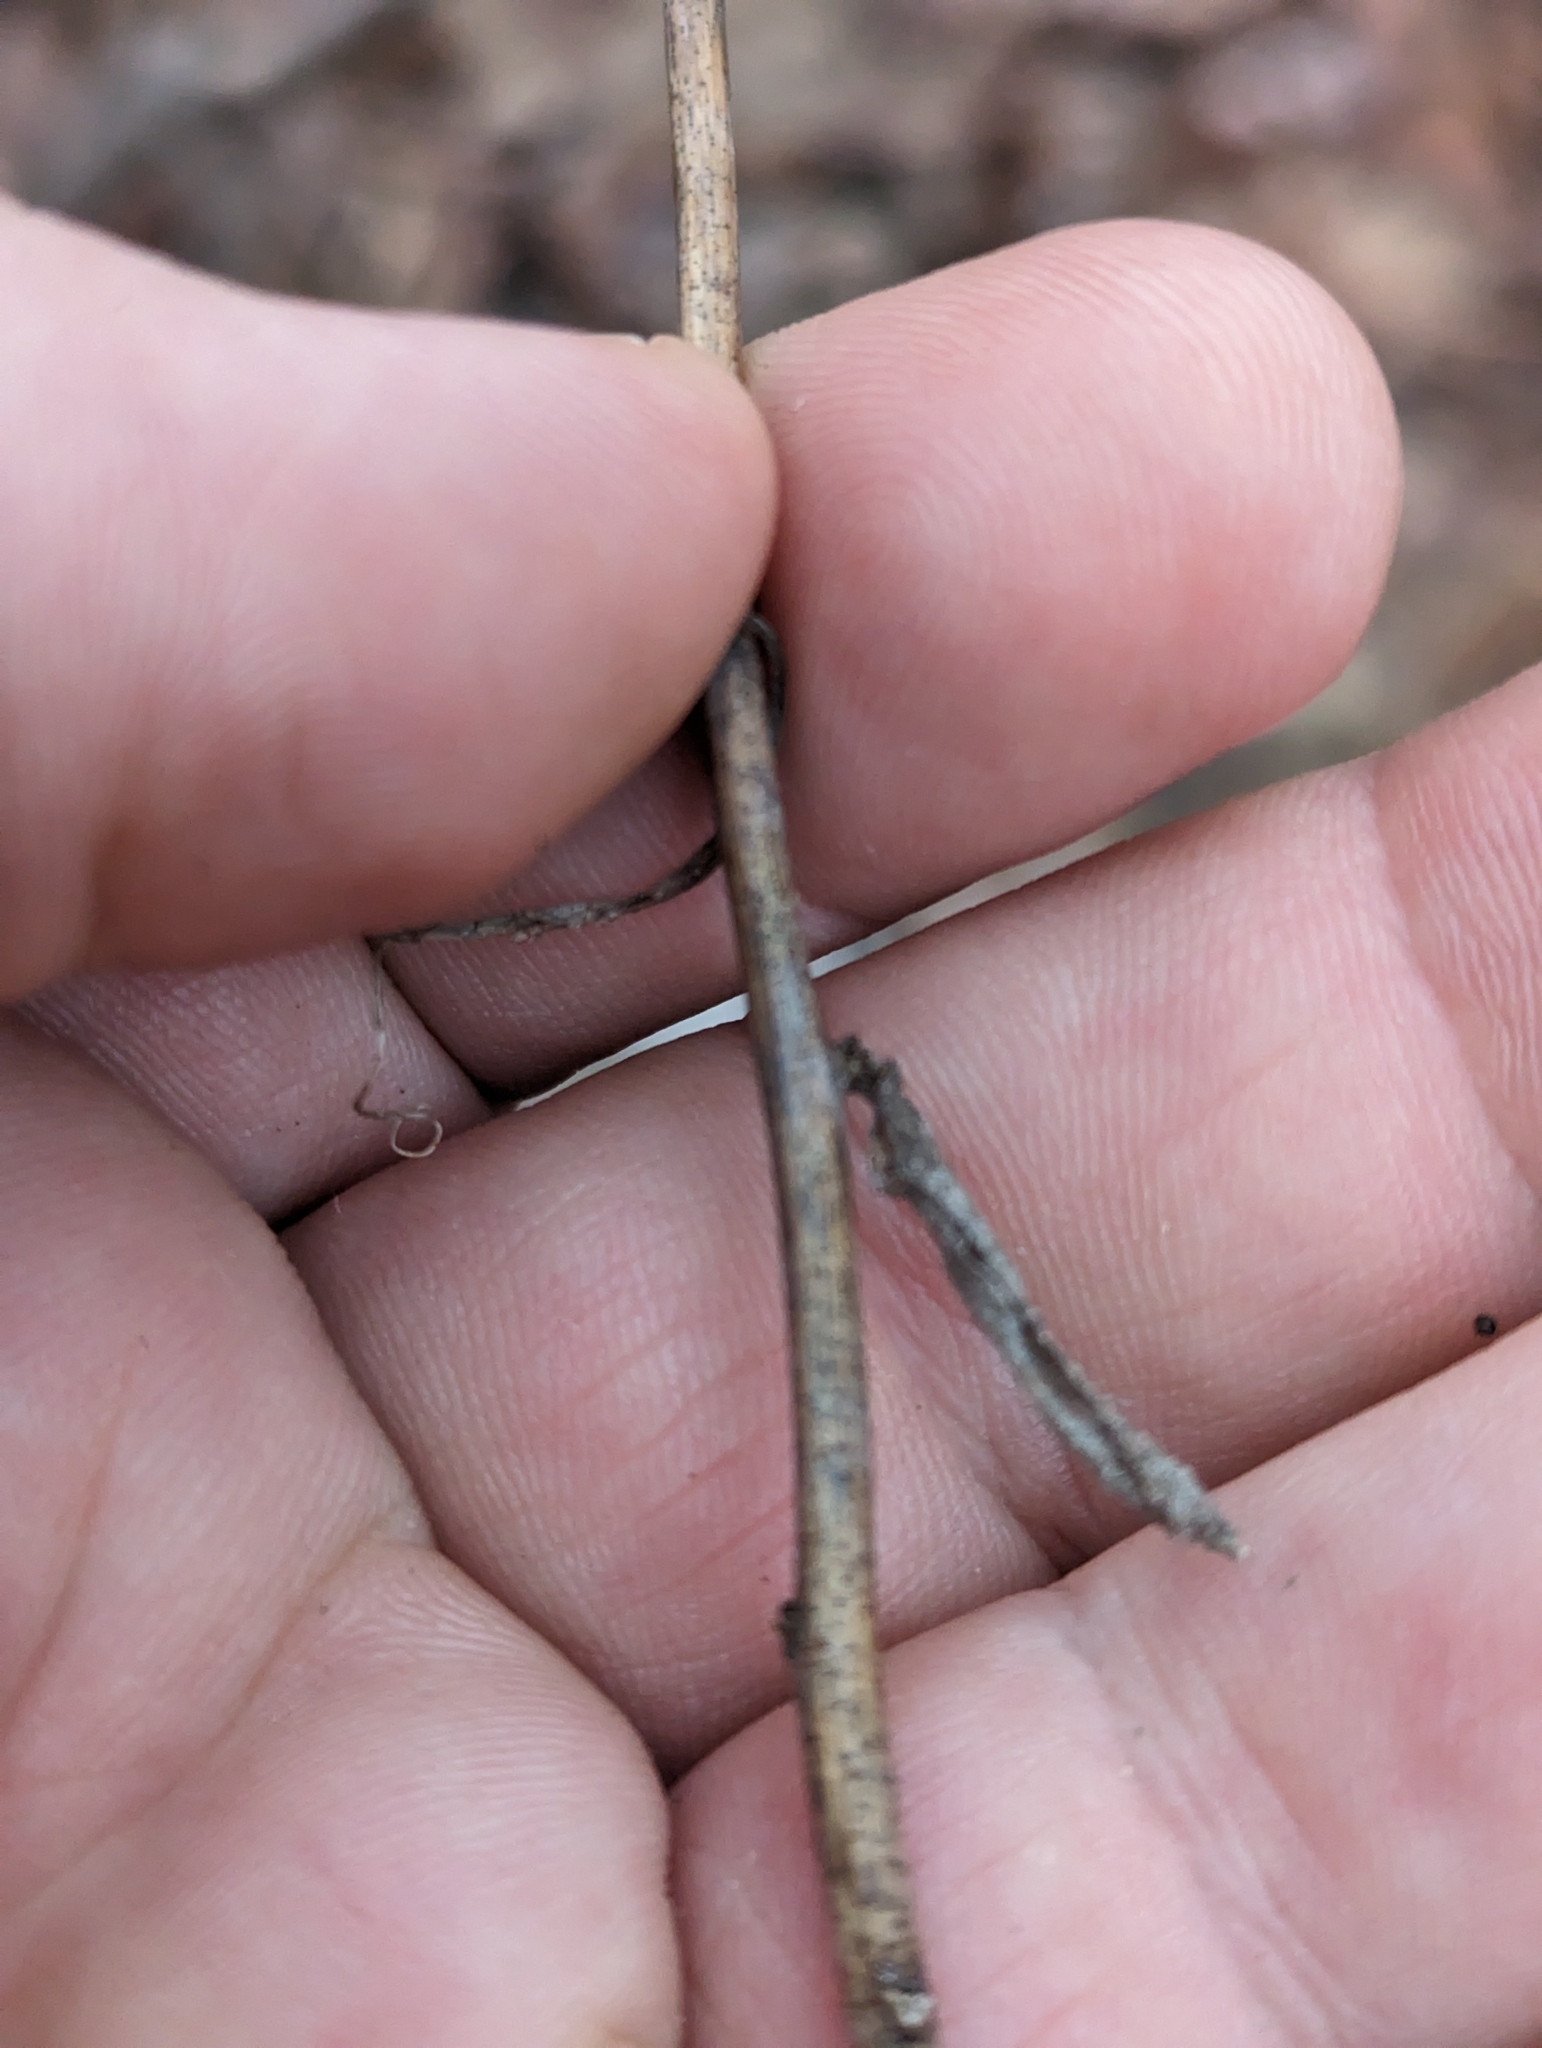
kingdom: Plantae
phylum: Tracheophyta
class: Magnoliopsida
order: Asterales
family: Asteraceae
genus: Solidago
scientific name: Solidago caesia
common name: Woodland goldenrod
